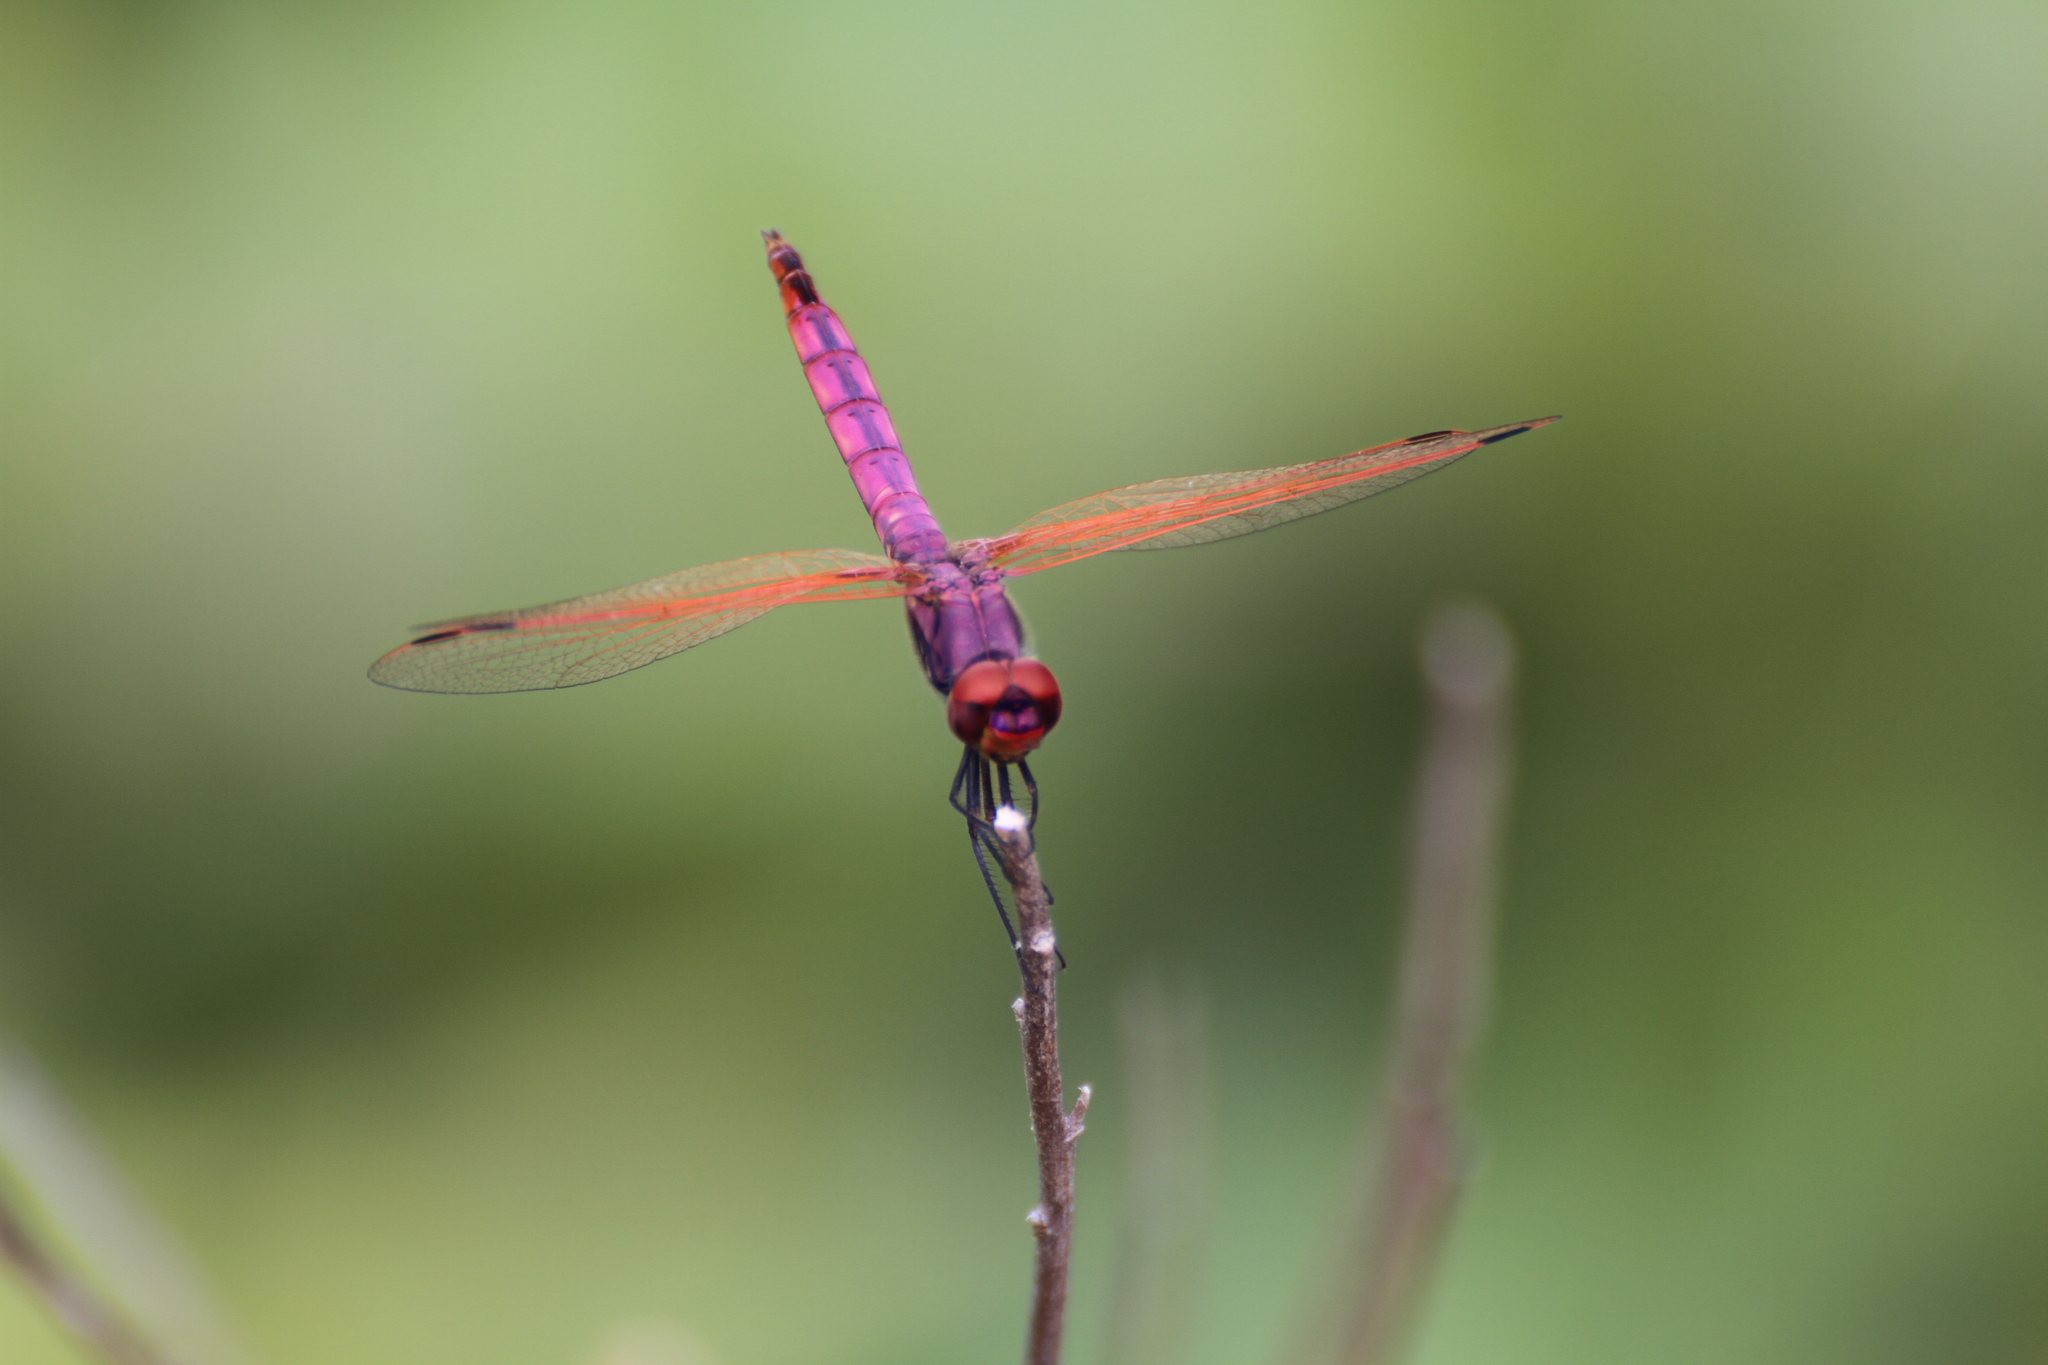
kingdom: Animalia
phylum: Arthropoda
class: Insecta
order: Odonata
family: Libellulidae
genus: Trithemis
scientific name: Trithemis annulata
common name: Violet dropwing
